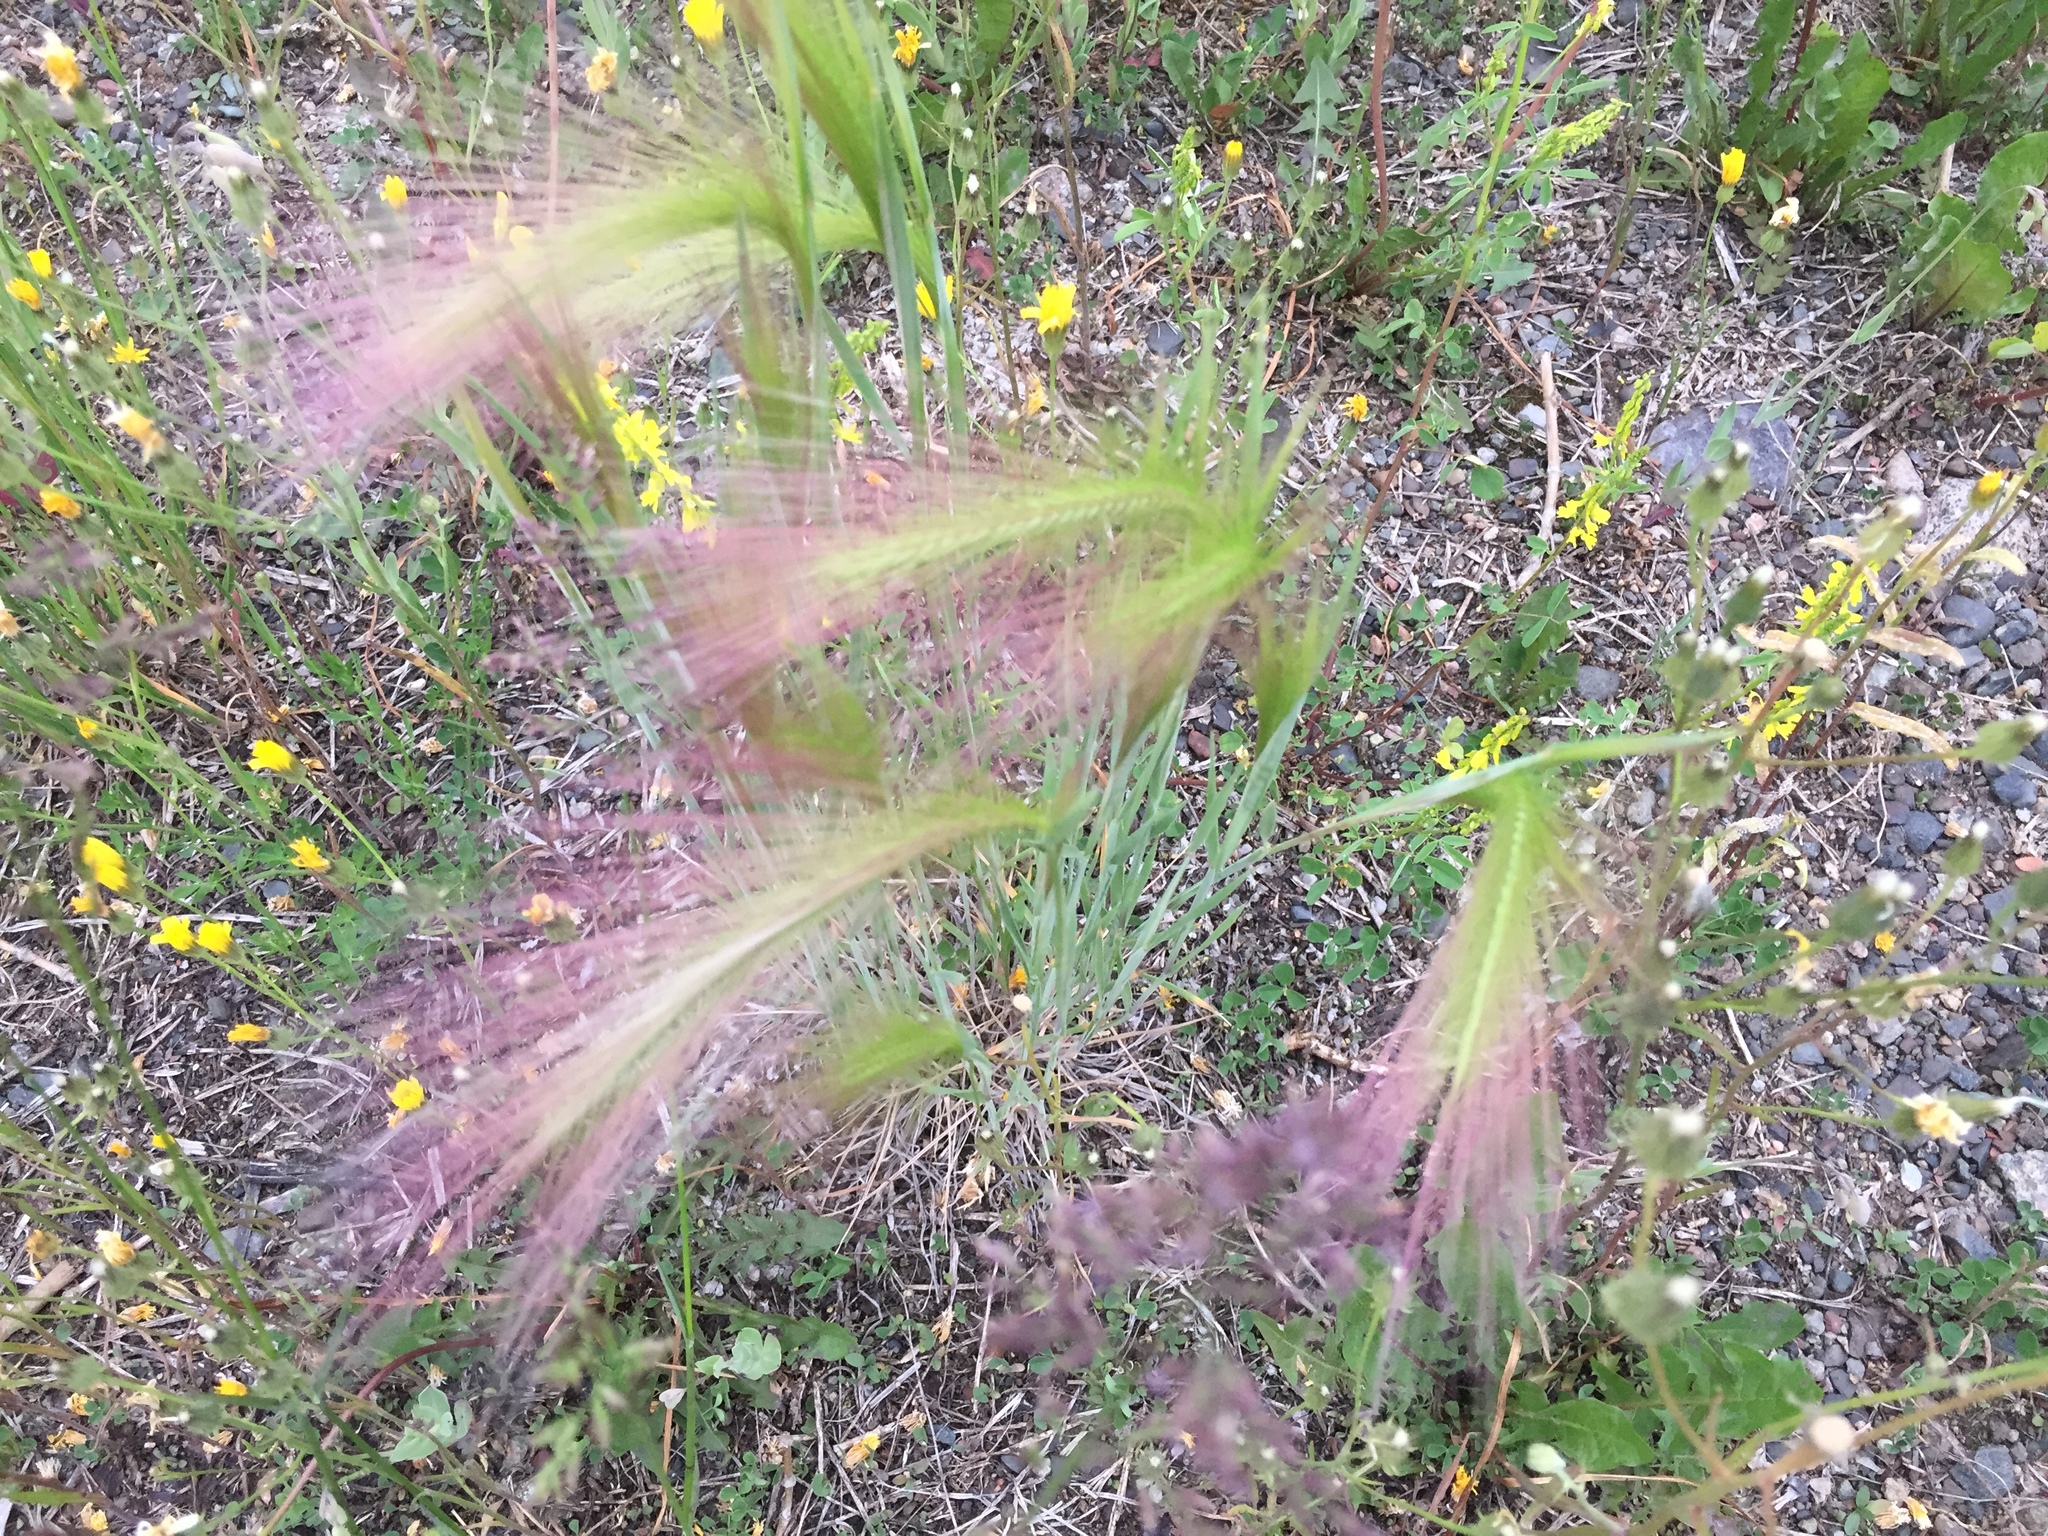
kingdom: Plantae
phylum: Tracheophyta
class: Liliopsida
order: Poales
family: Poaceae
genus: Hordeum
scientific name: Hordeum jubatum
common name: Foxtail barley
